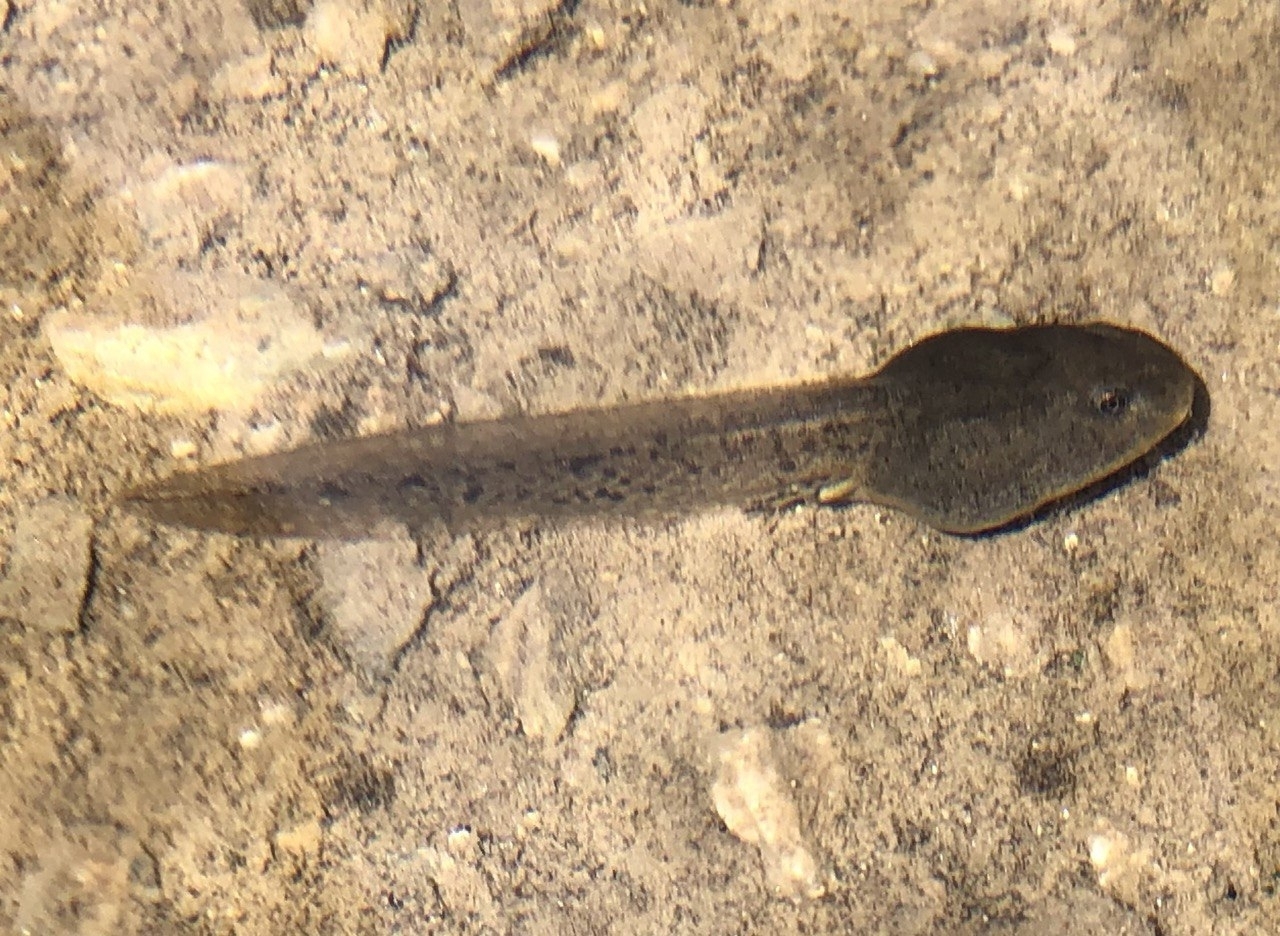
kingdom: Animalia
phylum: Chordata
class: Amphibia
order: Anura
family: Ranidae
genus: Rana
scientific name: Rana temporaria
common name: Common frog
